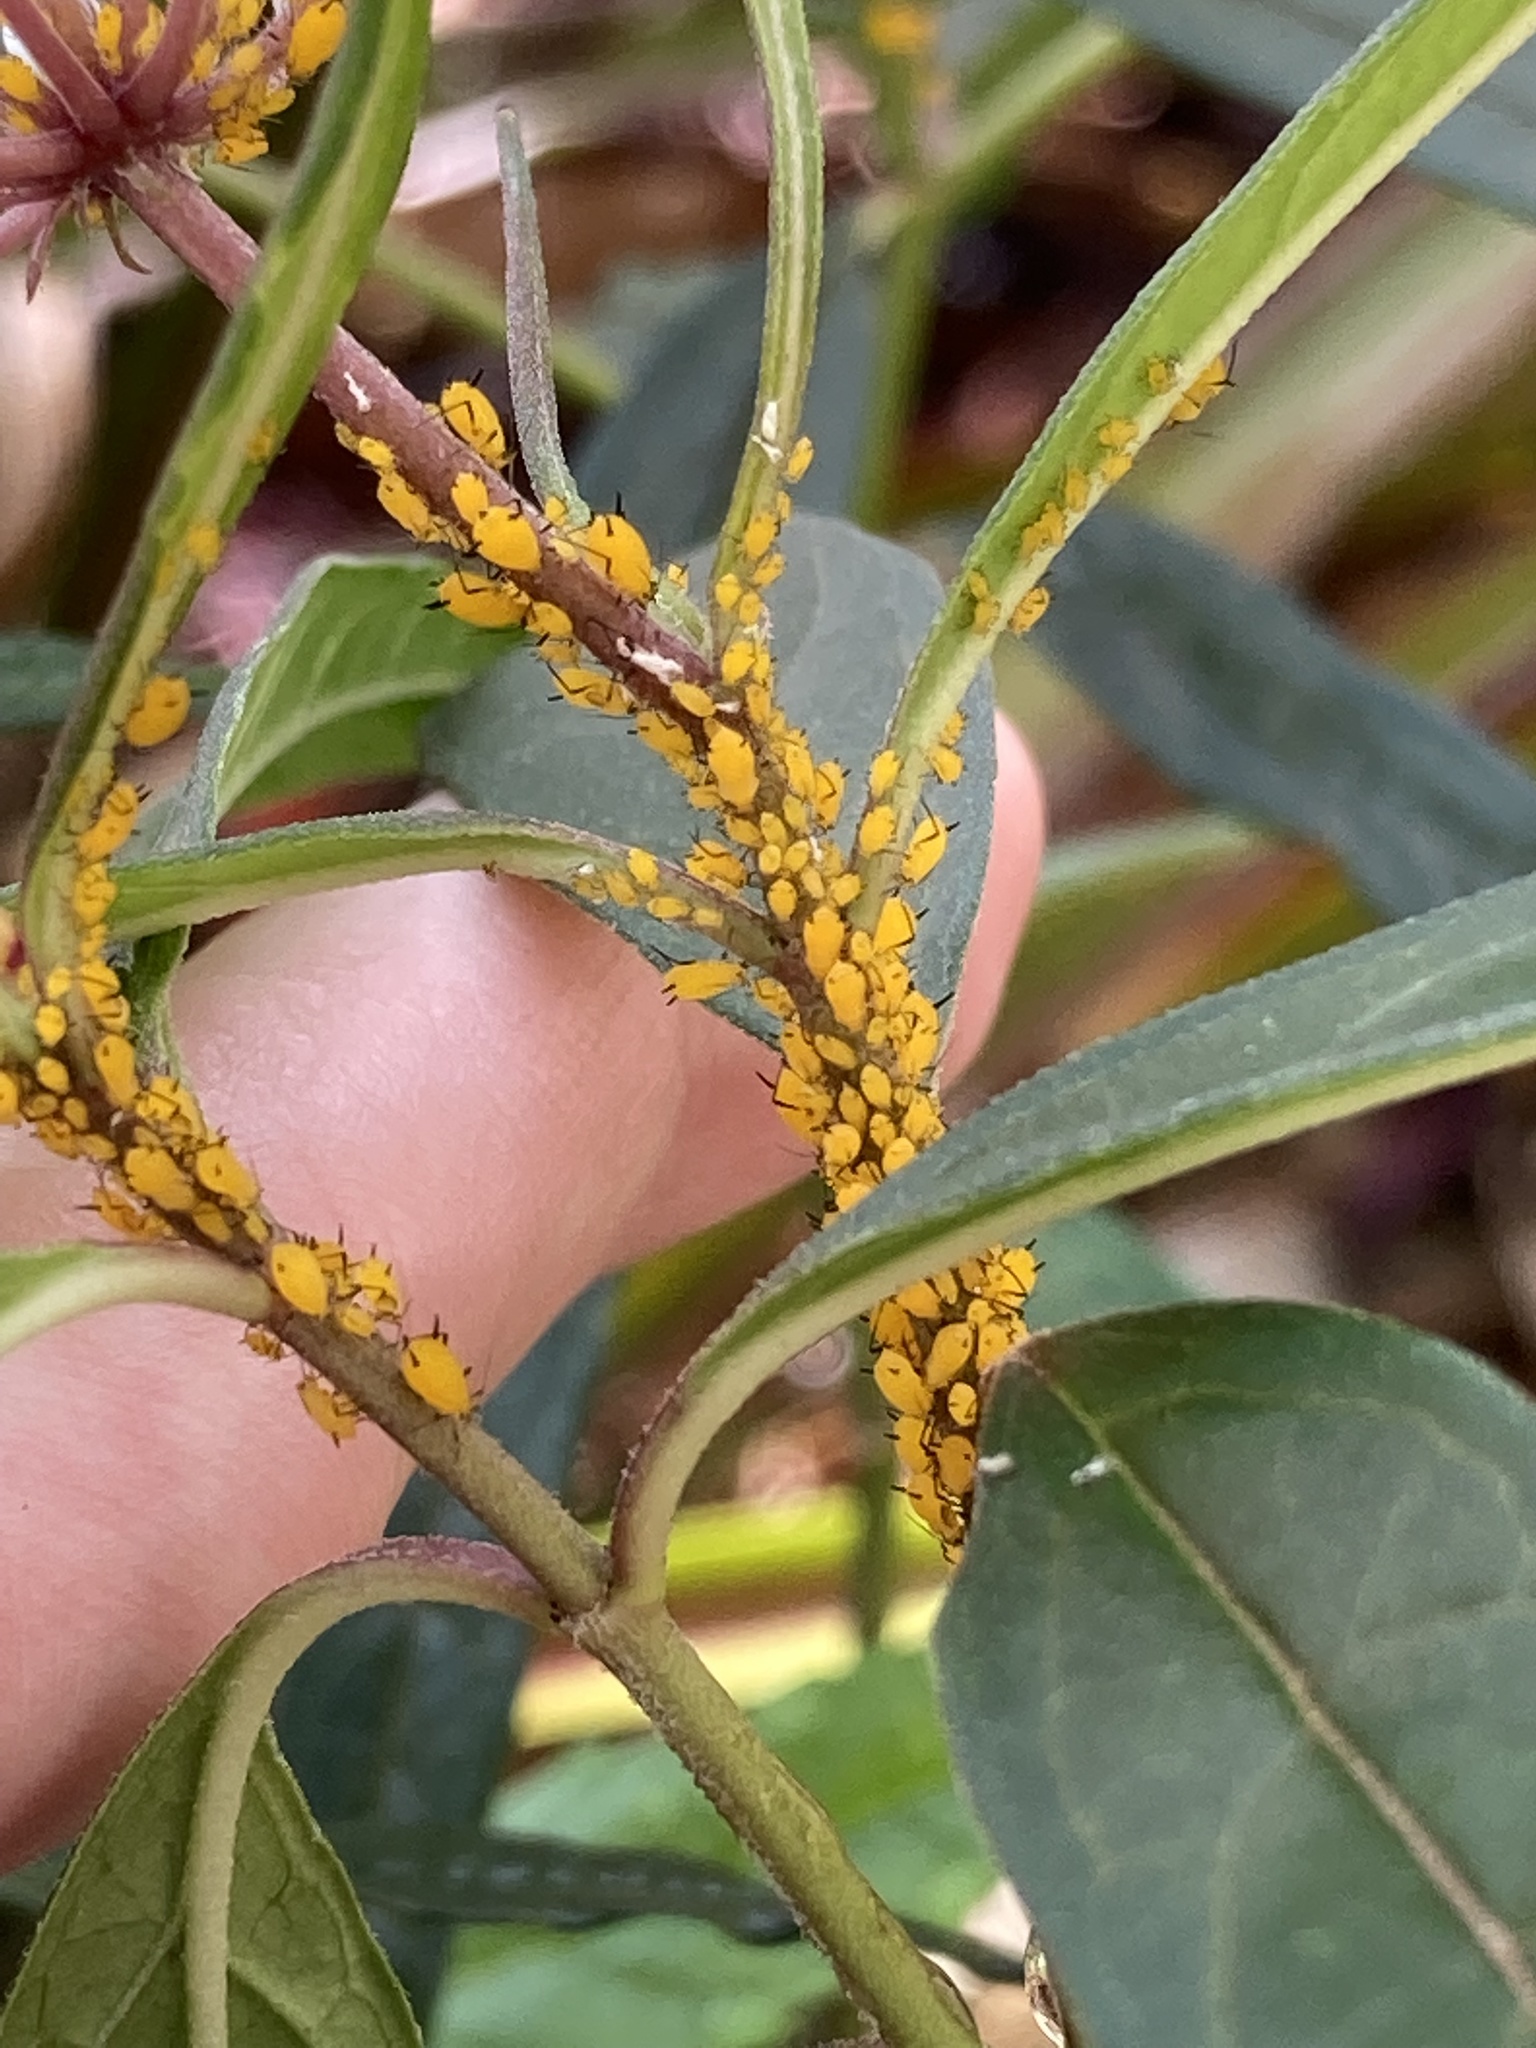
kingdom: Animalia
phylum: Arthropoda
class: Insecta
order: Hemiptera
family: Aphididae
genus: Aphis
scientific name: Aphis nerii
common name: Oleander aphid
